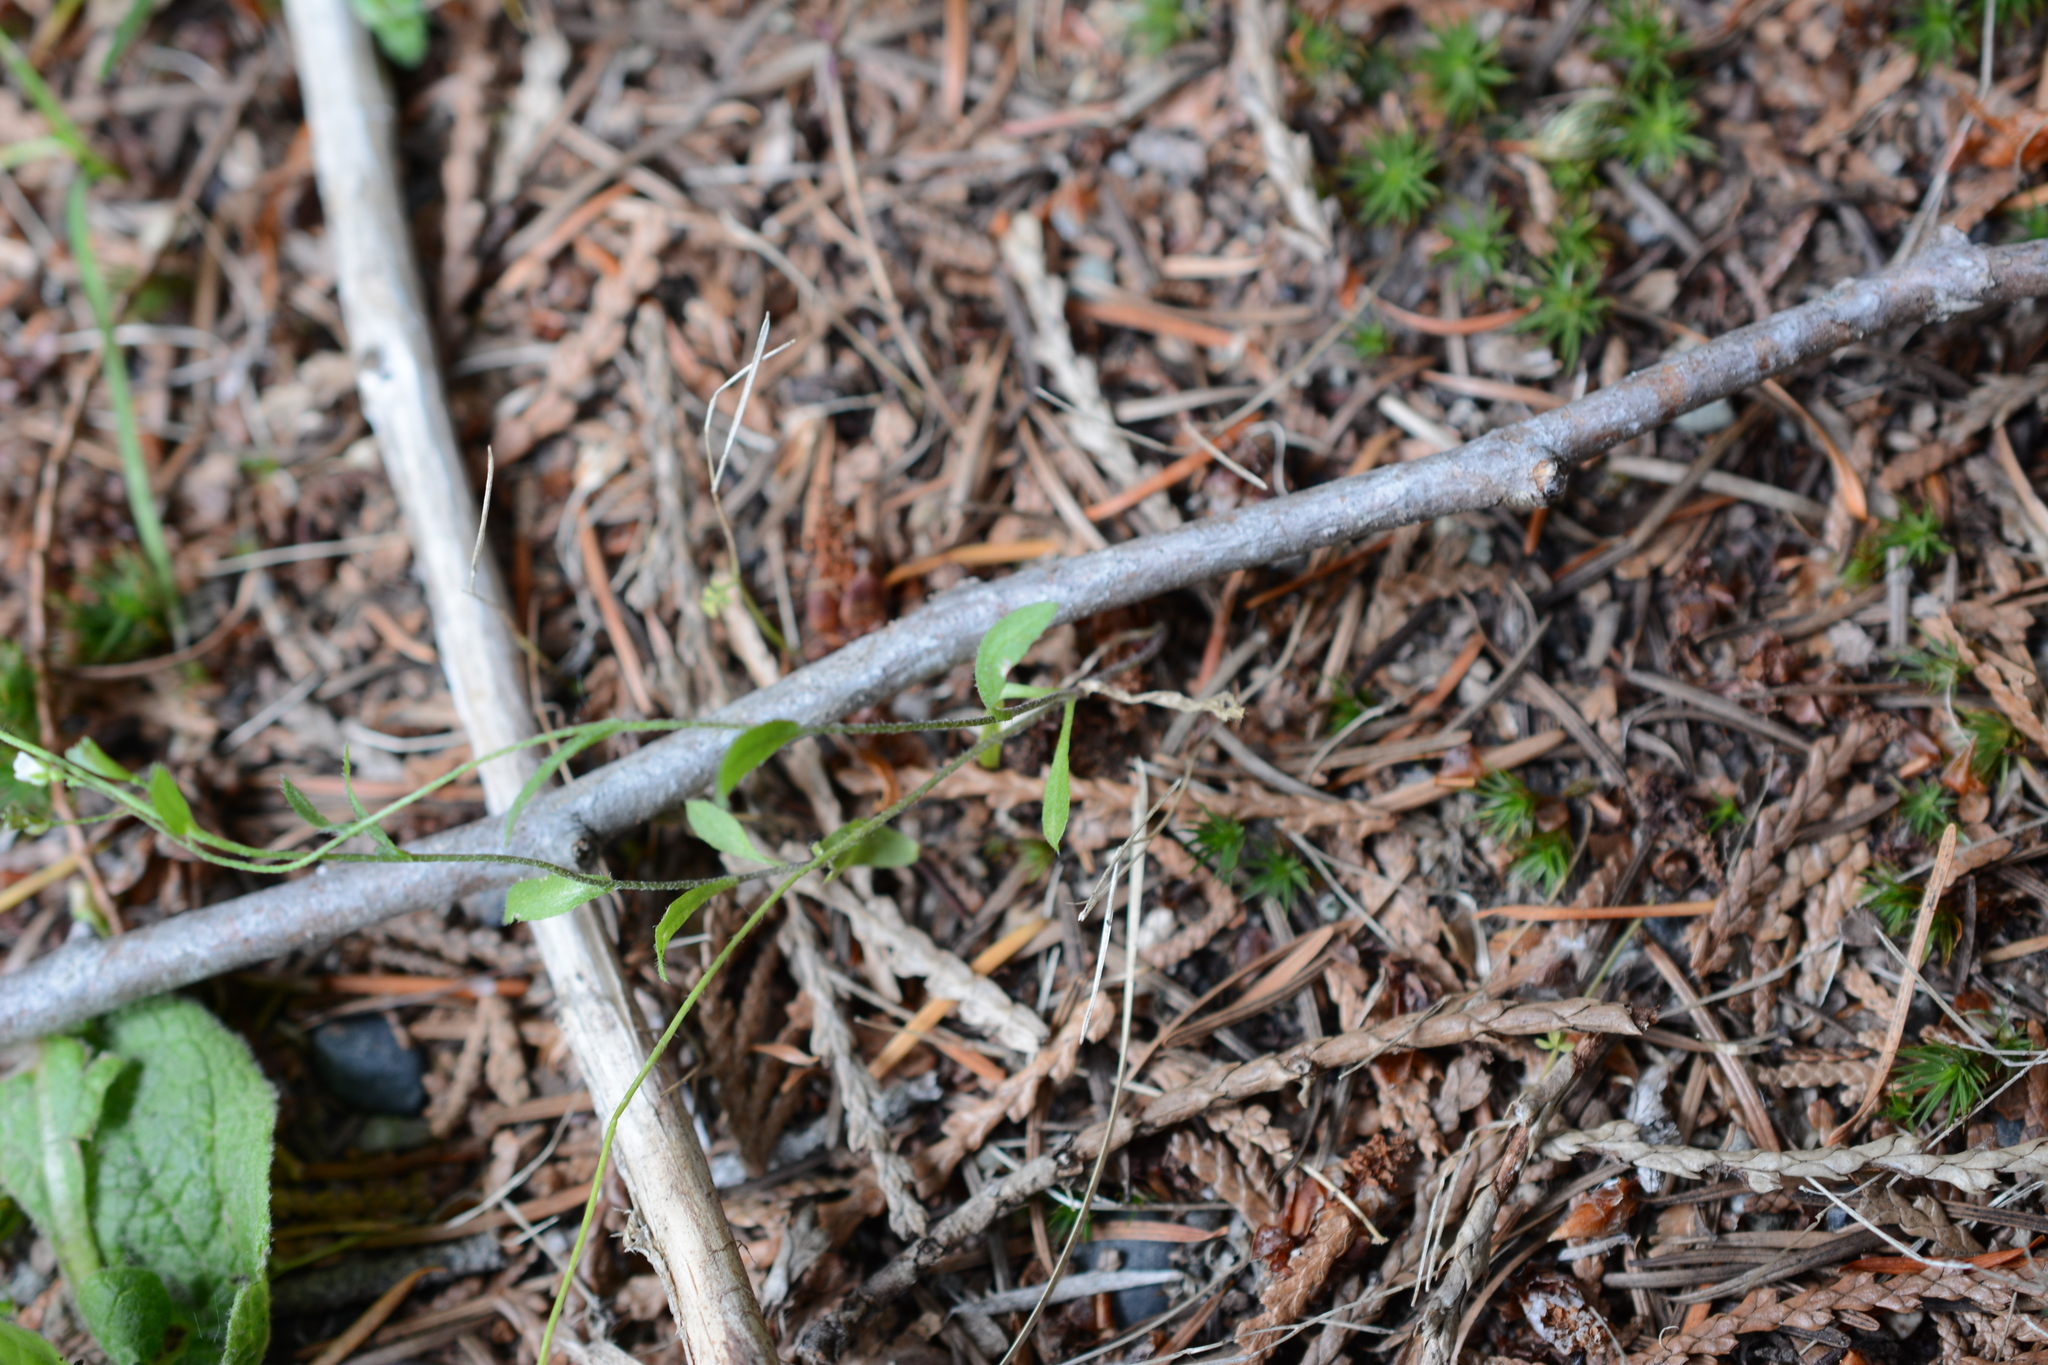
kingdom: Plantae
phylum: Tracheophyta
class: Magnoliopsida
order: Brassicales
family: Brassicaceae
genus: Capsella
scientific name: Capsella bursa-pastoris
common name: Shepherd's purse
